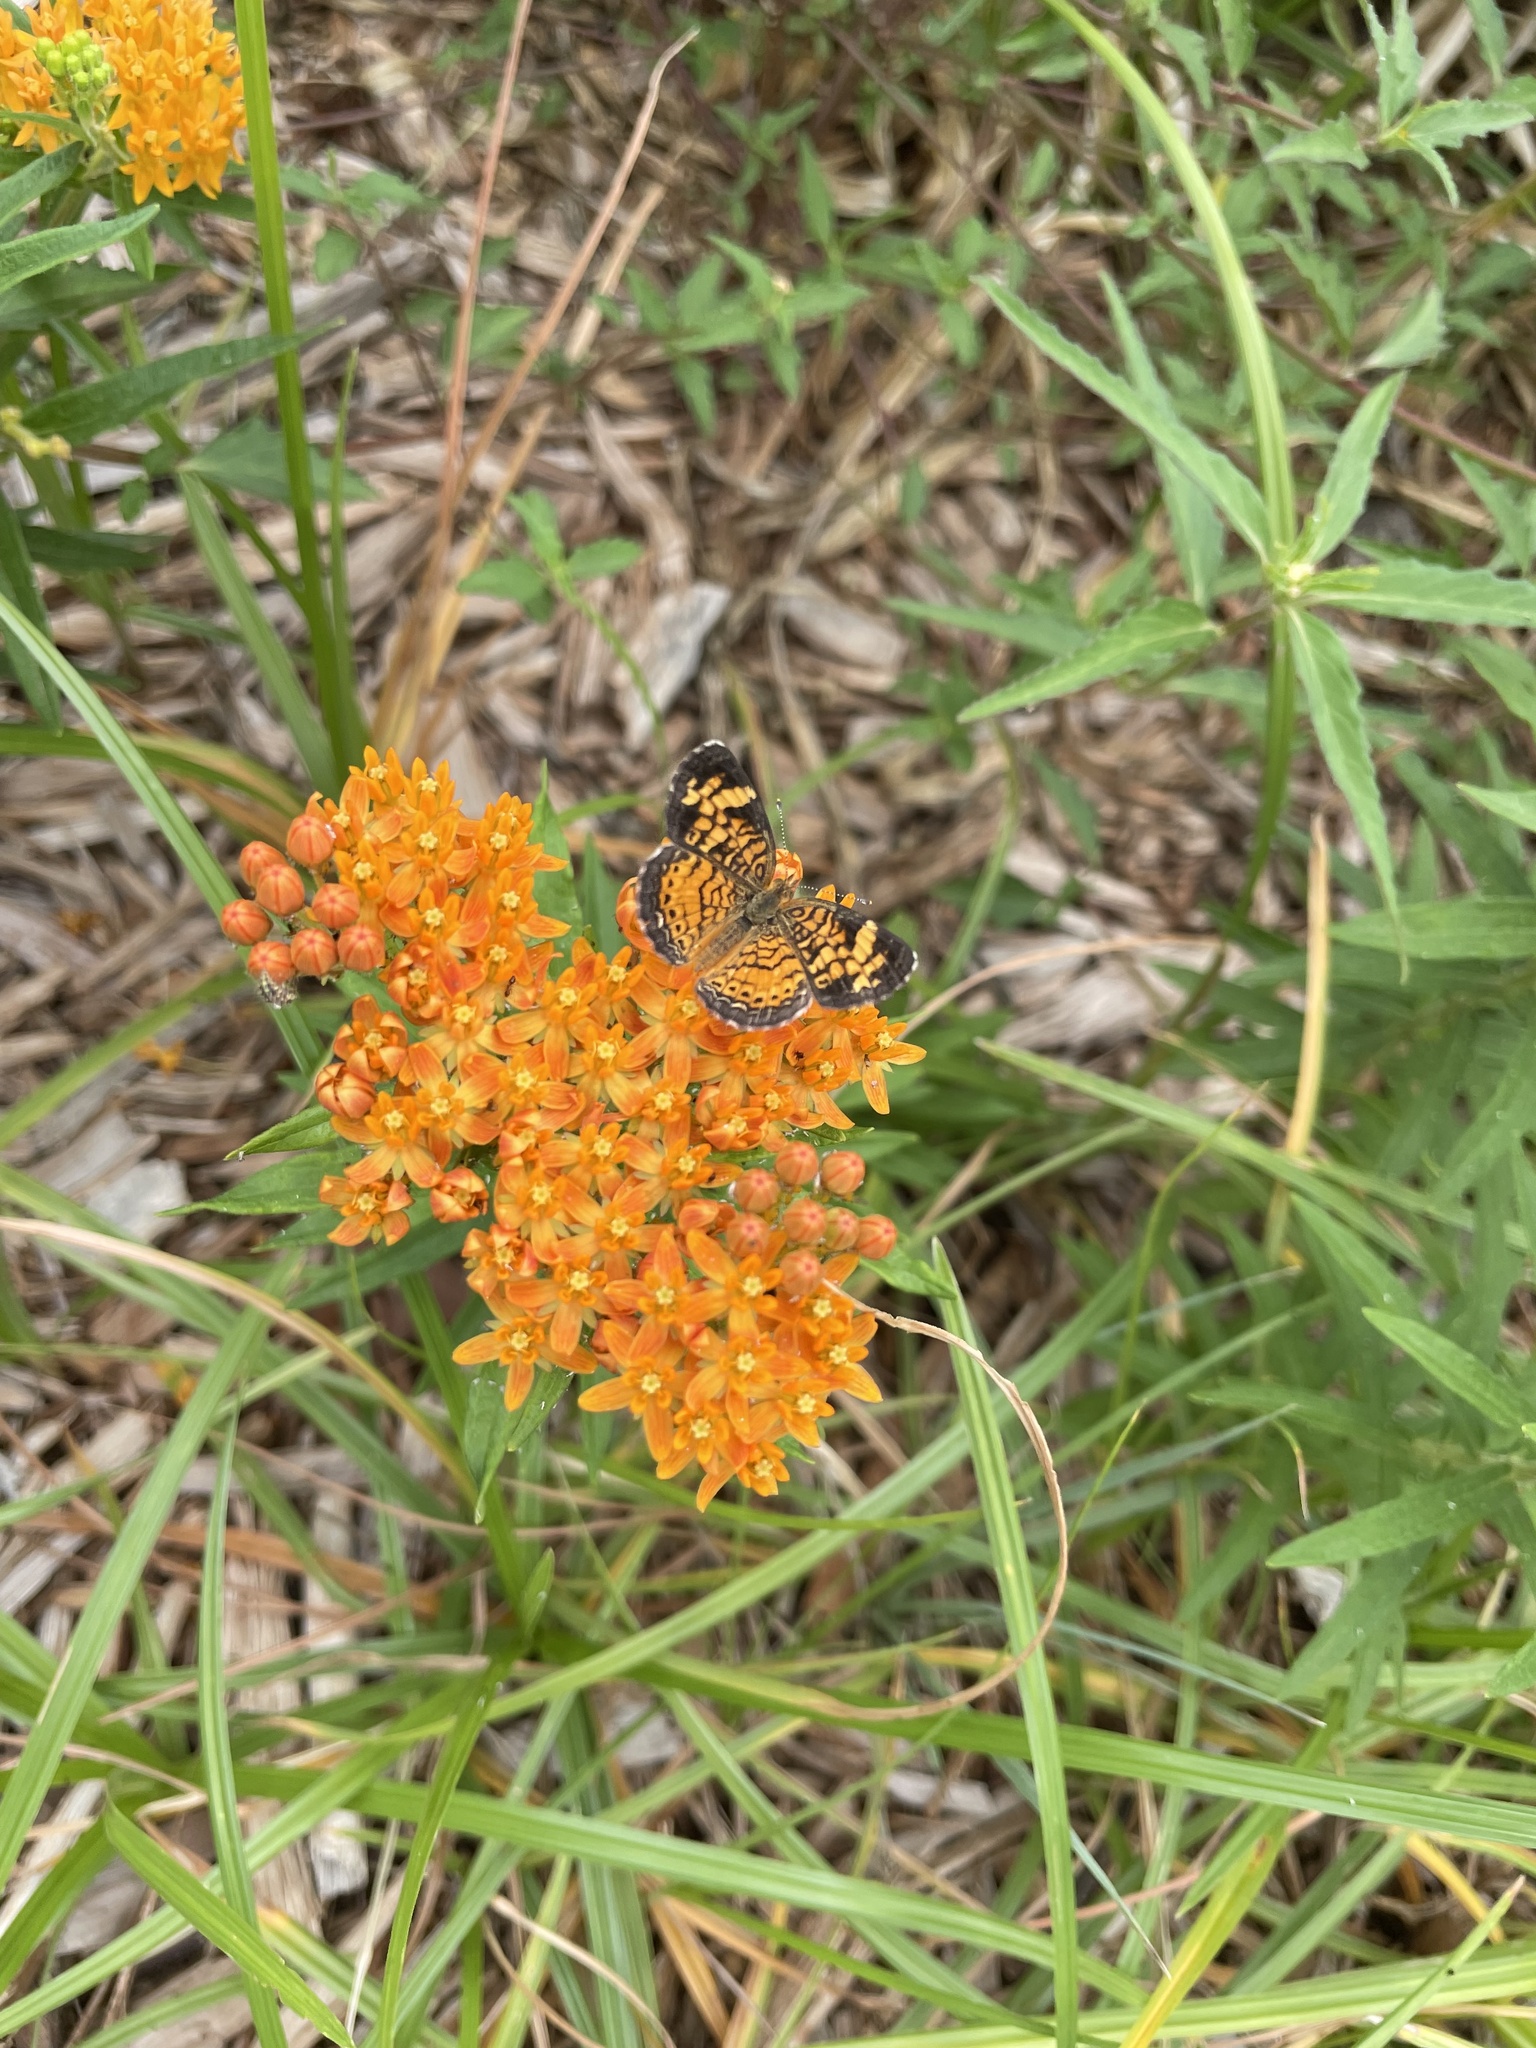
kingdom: Animalia
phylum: Arthropoda
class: Insecta
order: Lepidoptera
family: Nymphalidae
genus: Phyciodes
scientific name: Phyciodes tharos
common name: Pearl crescent
